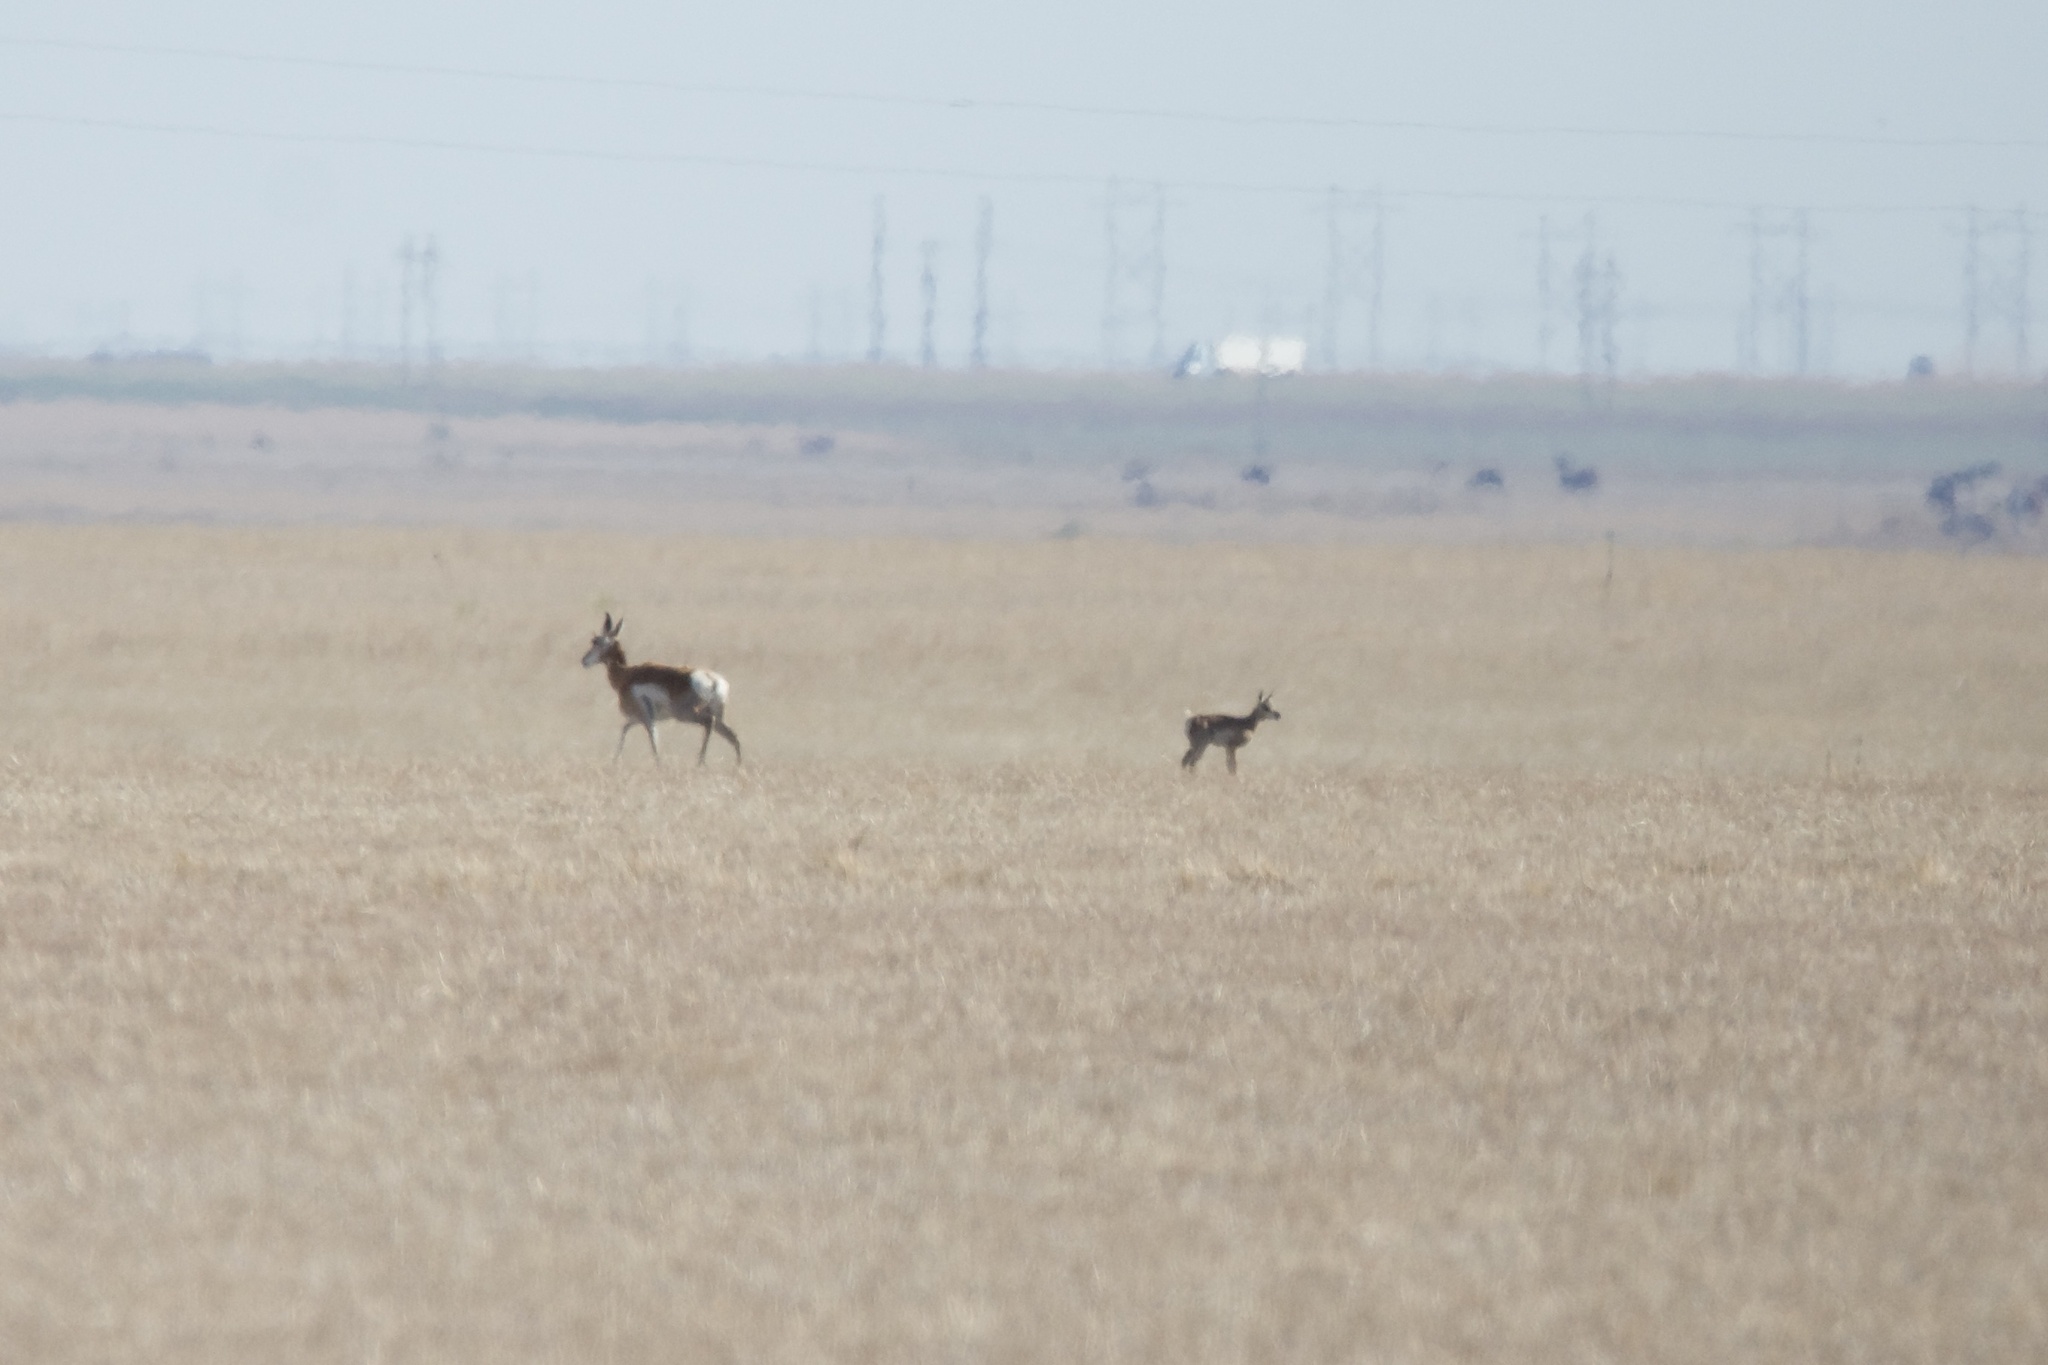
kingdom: Animalia
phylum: Chordata
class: Mammalia
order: Artiodactyla
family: Antilocapridae
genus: Antilocapra
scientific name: Antilocapra americana
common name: Pronghorn
